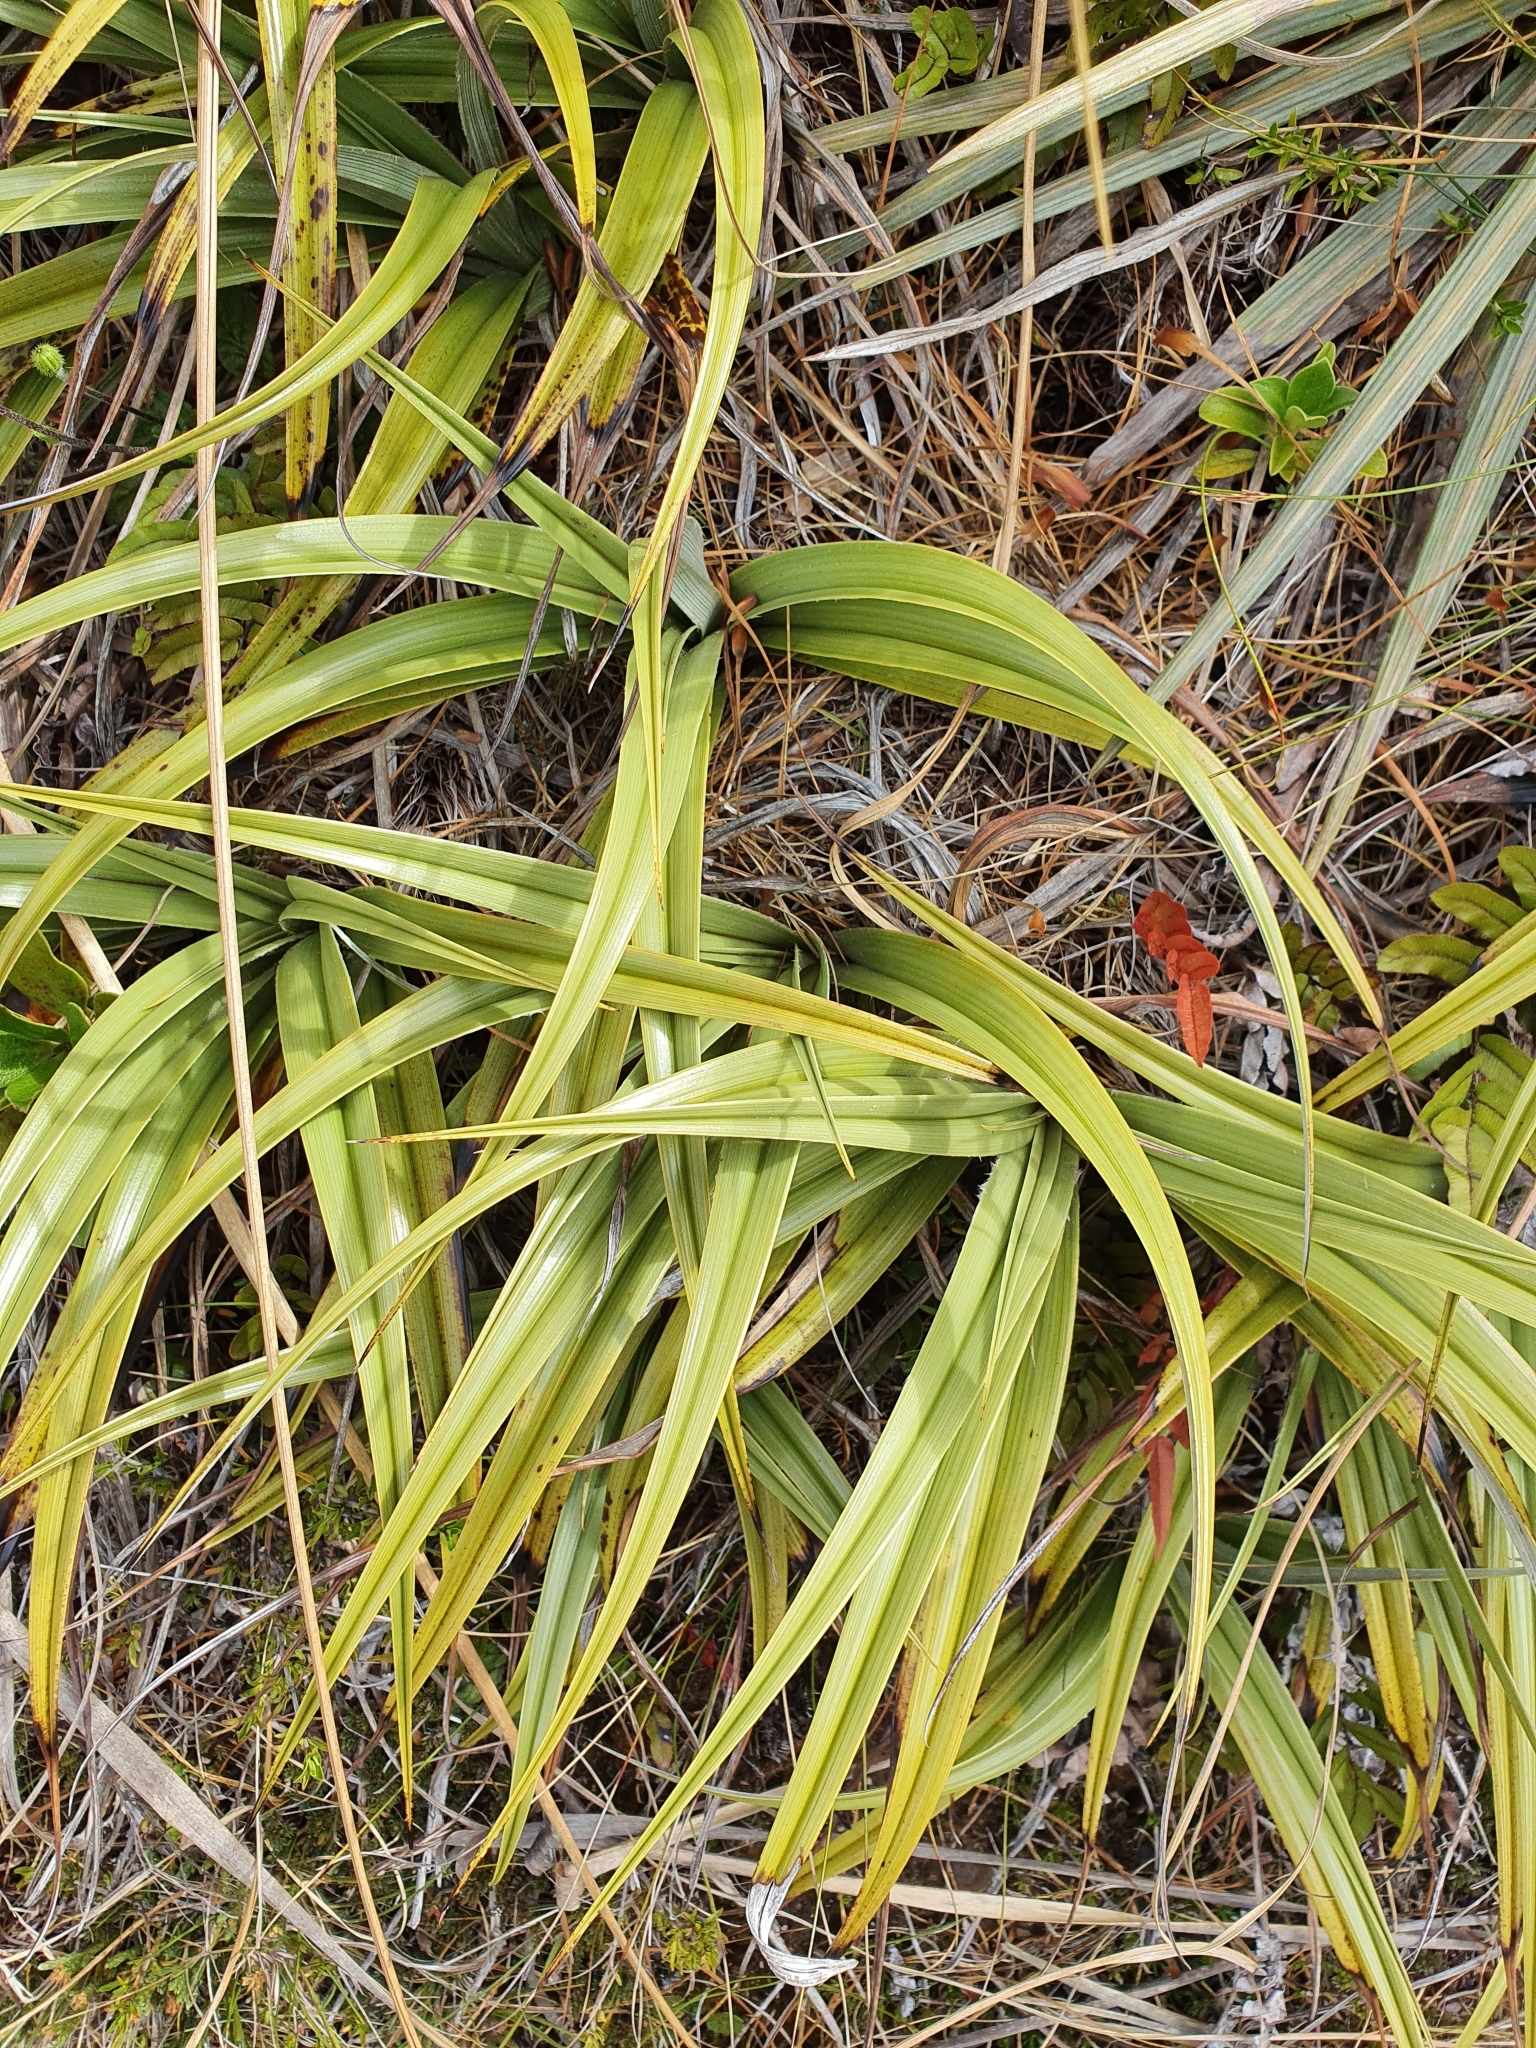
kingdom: Plantae
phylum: Tracheophyta
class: Liliopsida
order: Asparagales
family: Asteliaceae
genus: Astelia
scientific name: Astelia petriei
